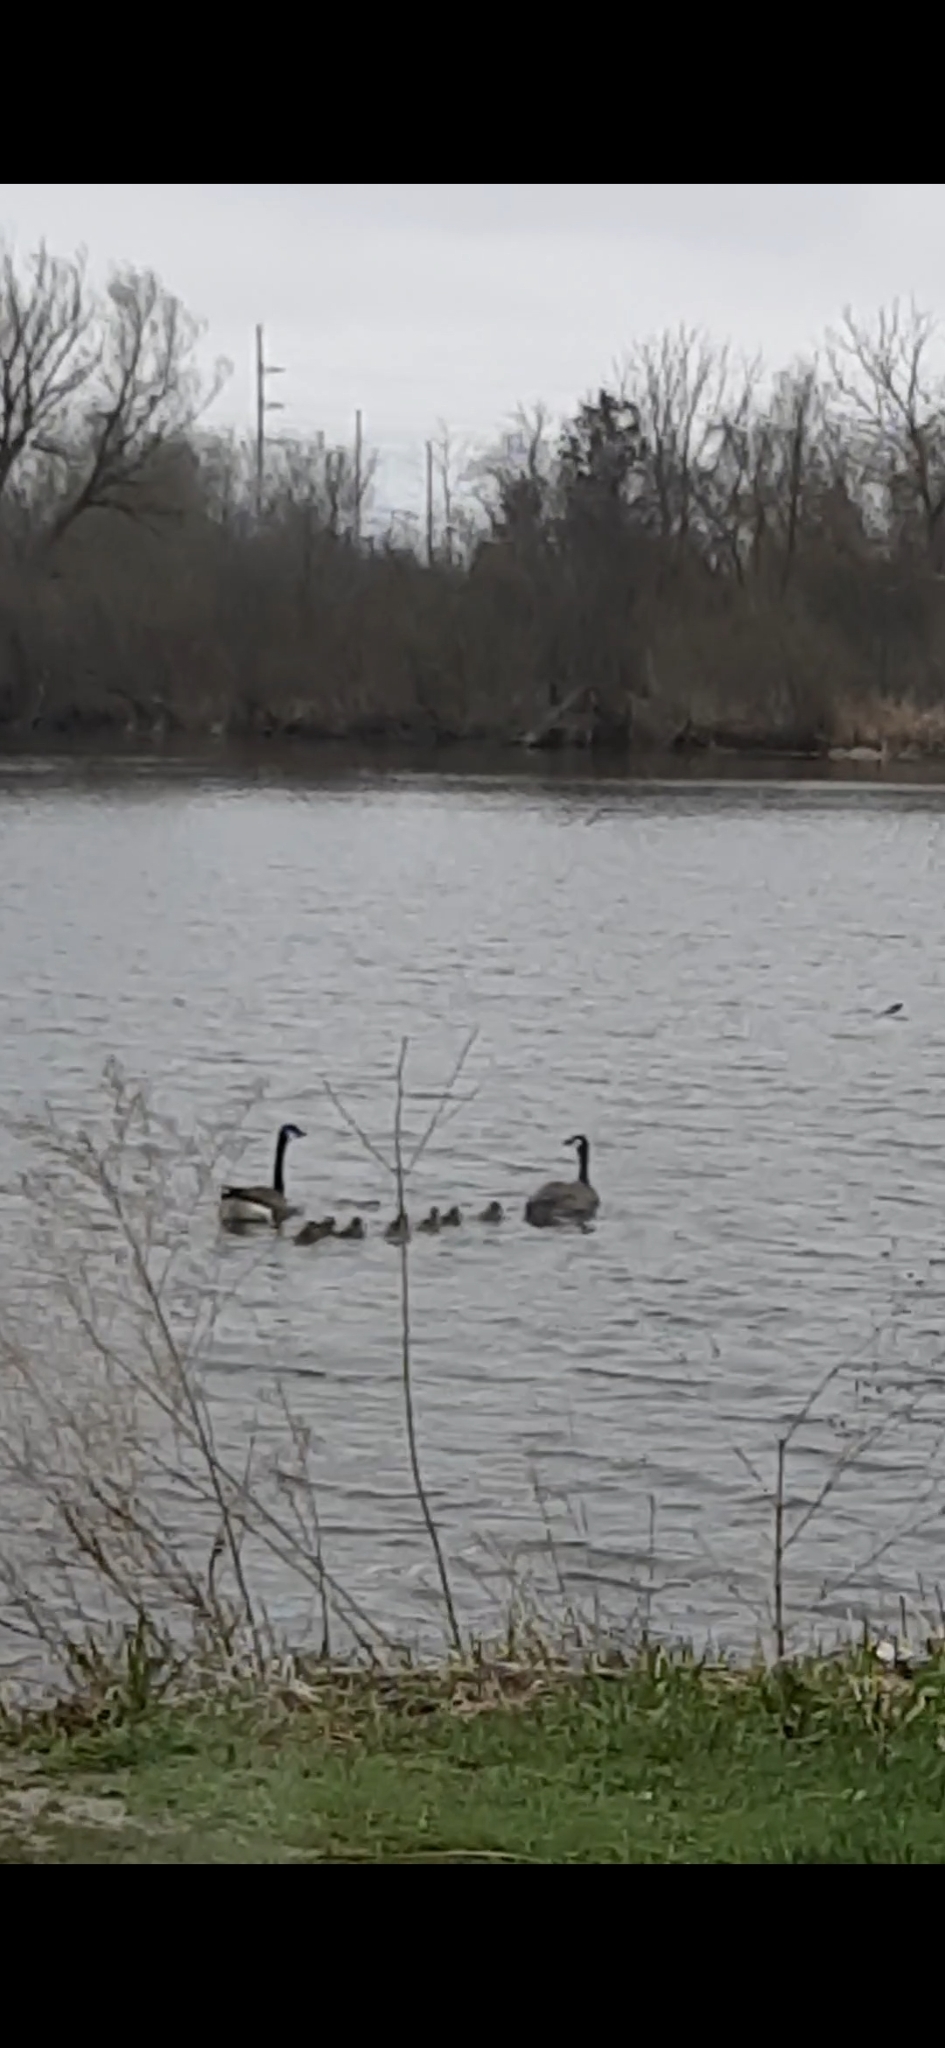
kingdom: Animalia
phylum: Chordata
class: Aves
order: Anseriformes
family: Anatidae
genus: Branta
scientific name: Branta canadensis
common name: Canada goose
